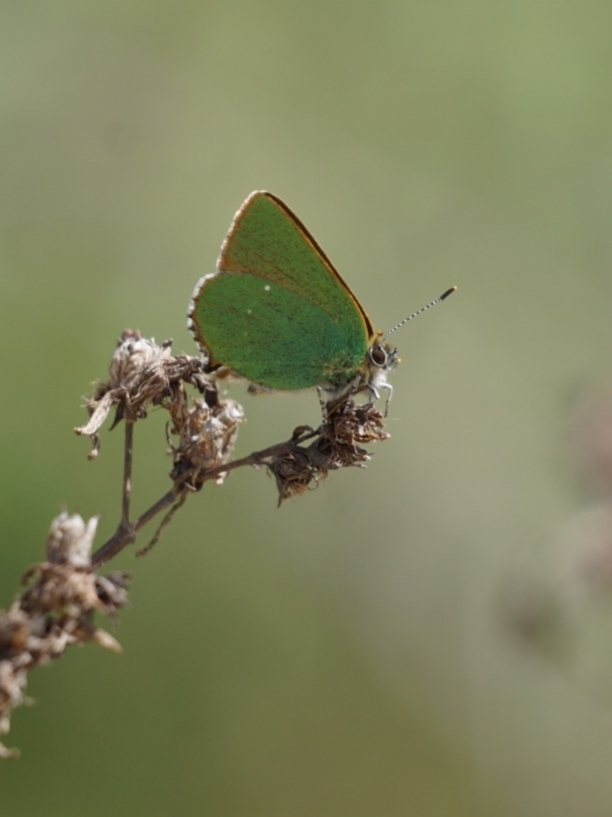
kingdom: Animalia
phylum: Arthropoda
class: Insecta
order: Lepidoptera
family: Lycaenidae
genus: Callophrys
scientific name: Callophrys rubi
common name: Green hairstreak
